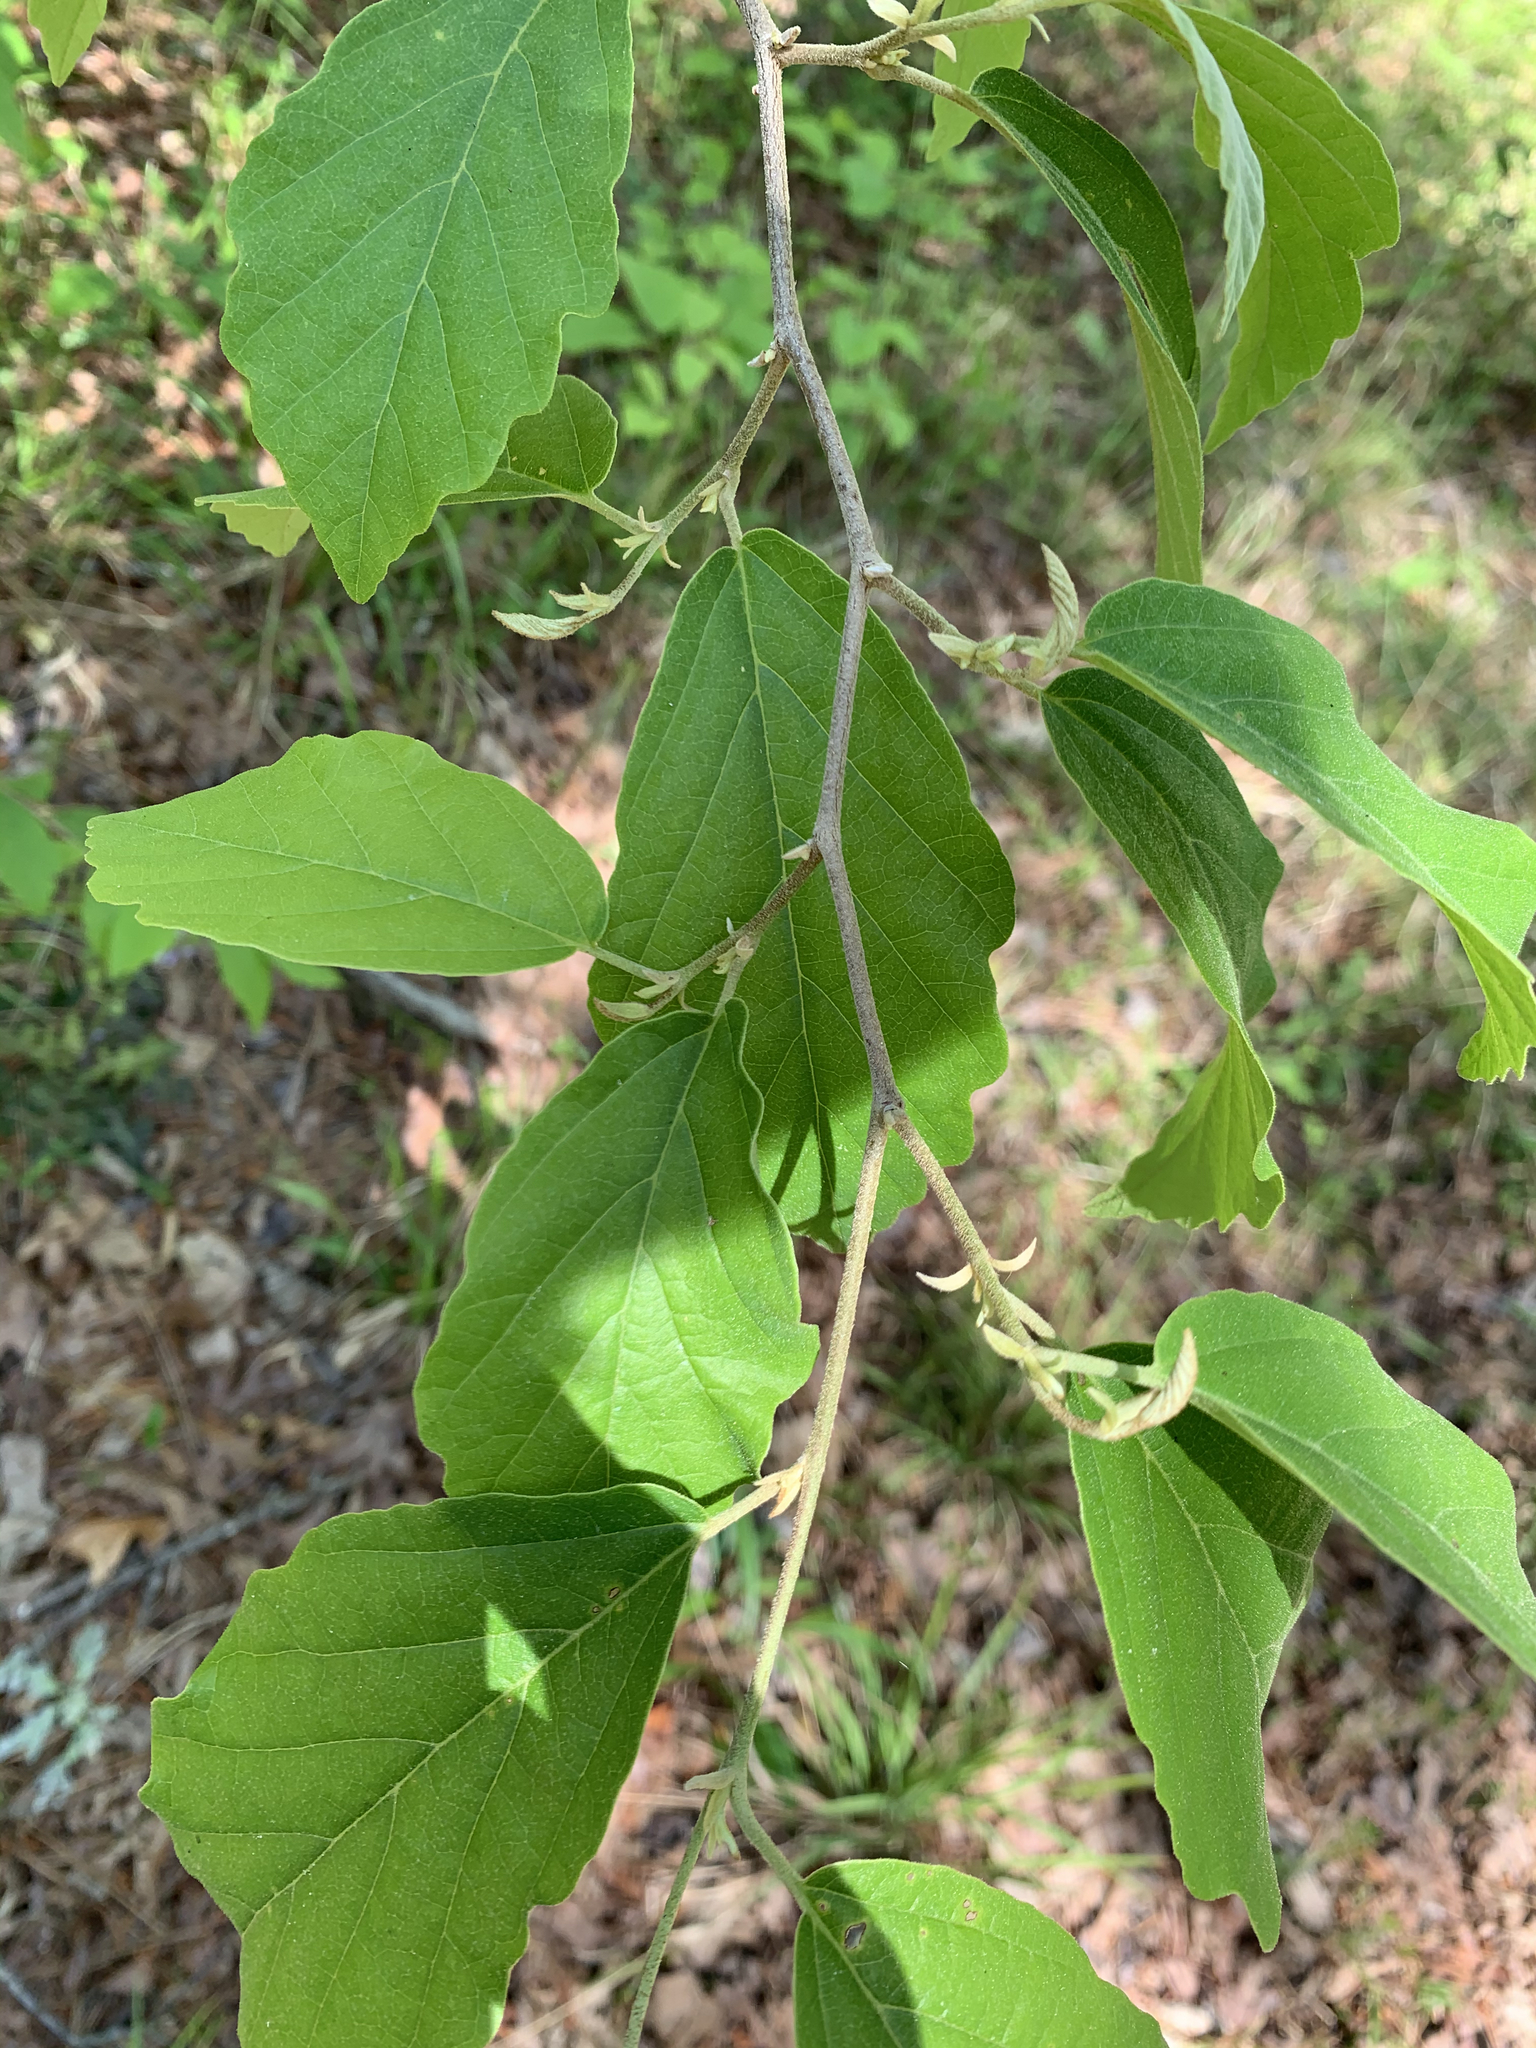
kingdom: Plantae
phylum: Tracheophyta
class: Magnoliopsida
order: Saxifragales
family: Hamamelidaceae
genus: Hamamelis
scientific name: Hamamelis virginiana
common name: Witch-hazel
